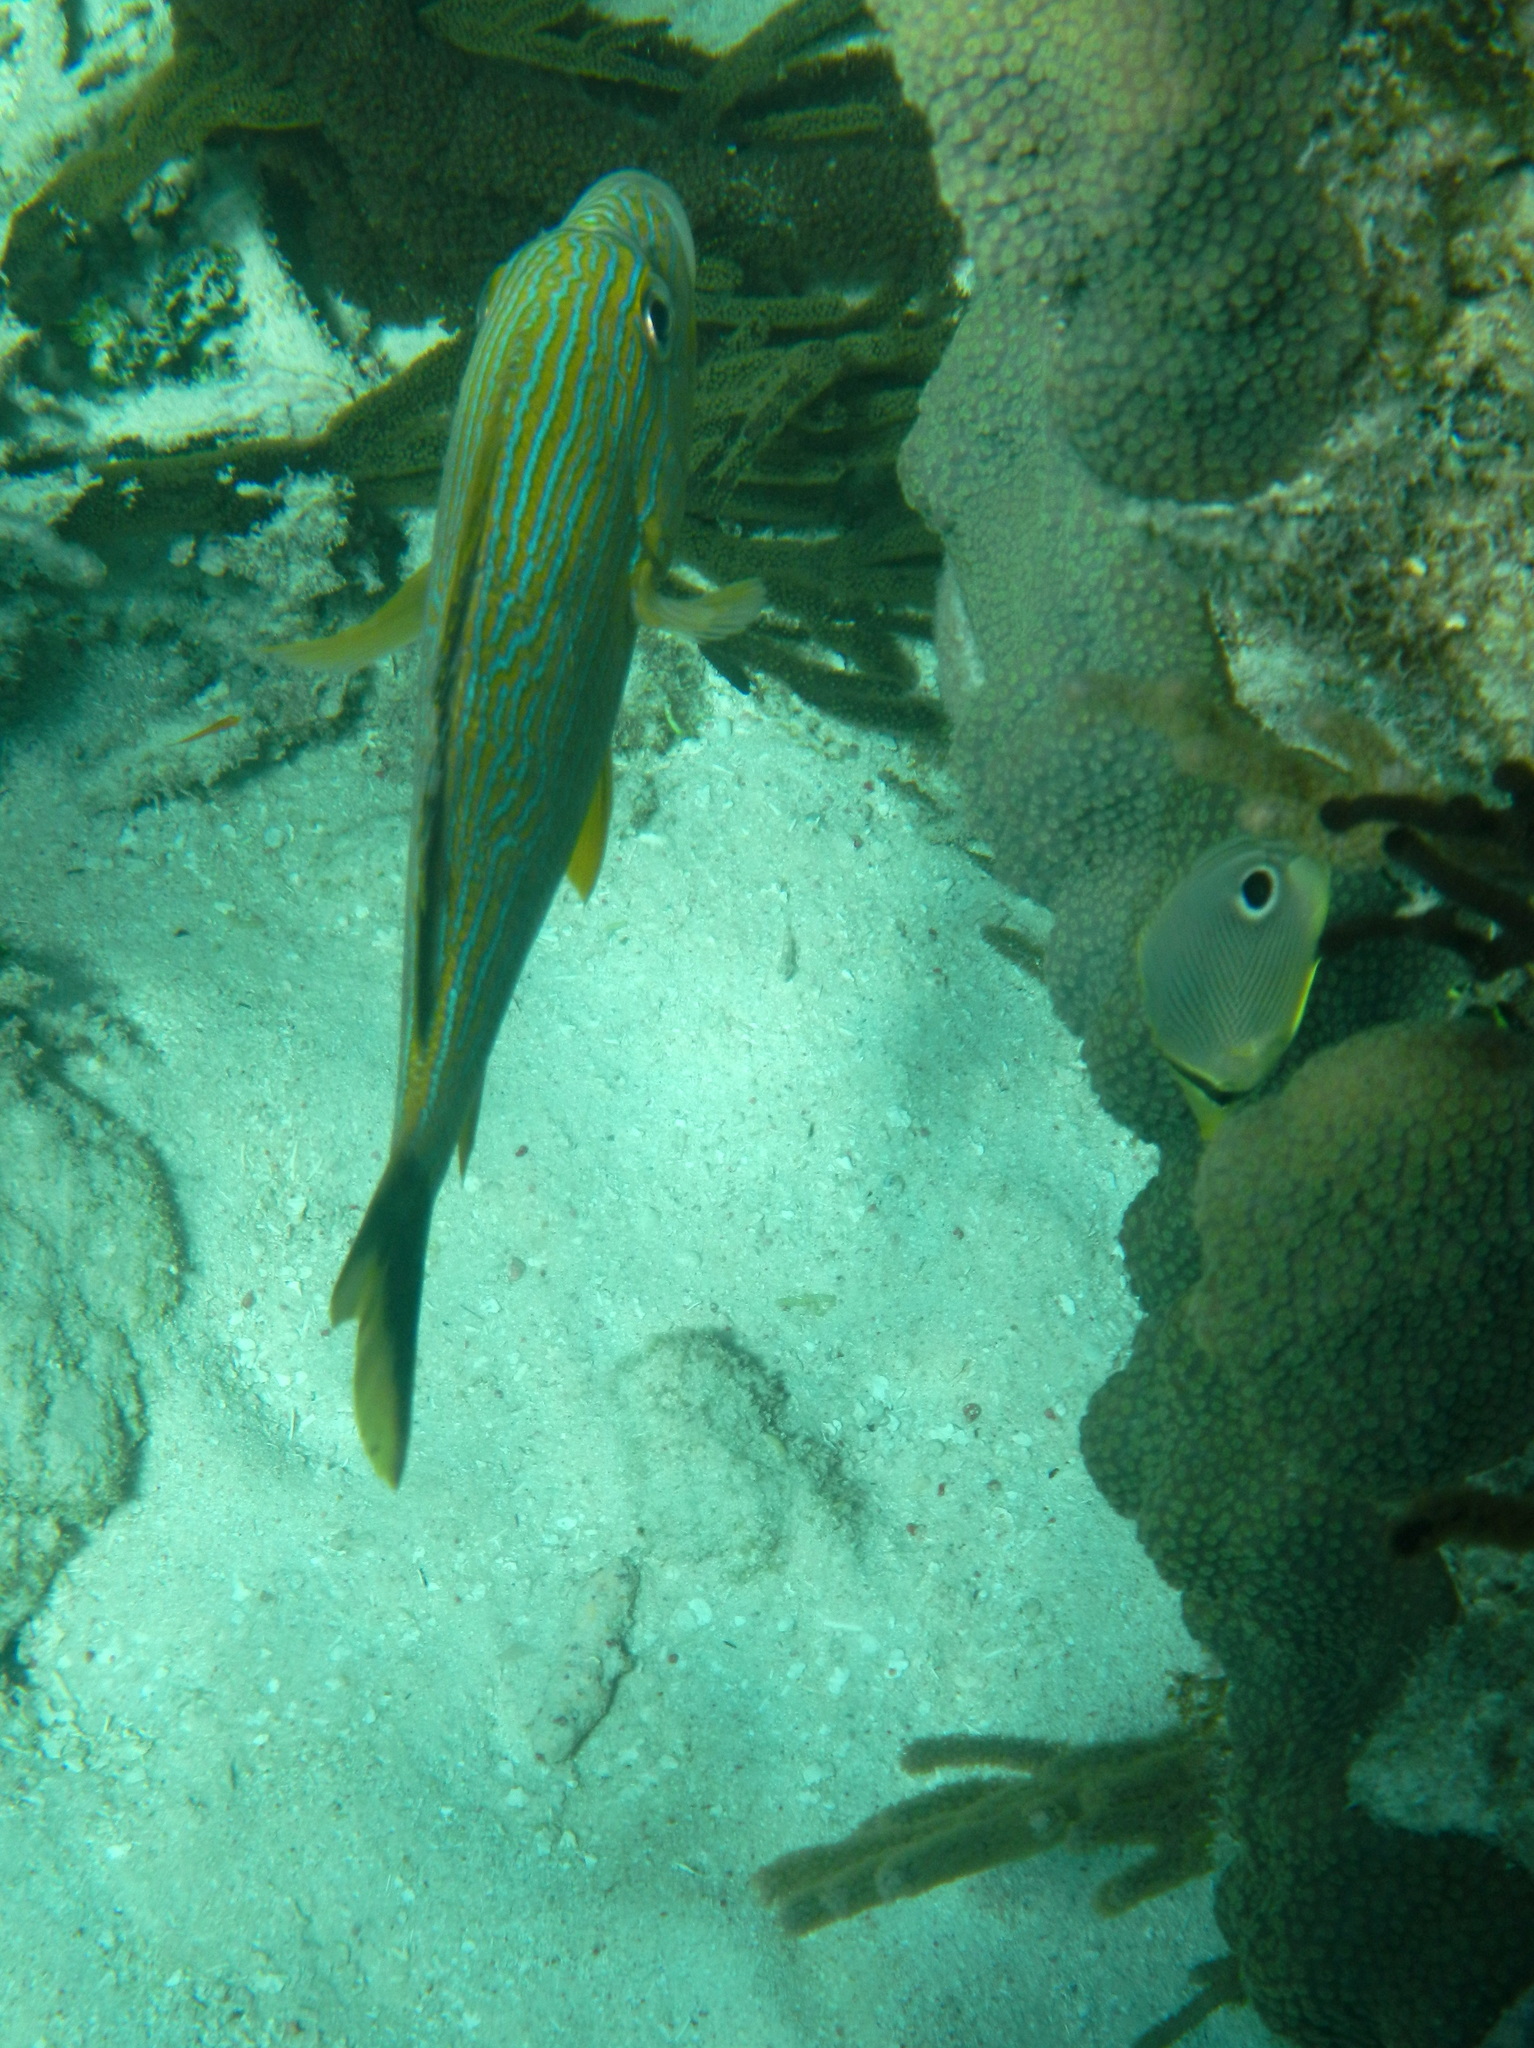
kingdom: Animalia
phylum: Chordata
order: Perciformes
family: Haemulidae
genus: Haemulon
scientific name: Haemulon sciurus
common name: Bluestriped grunt
